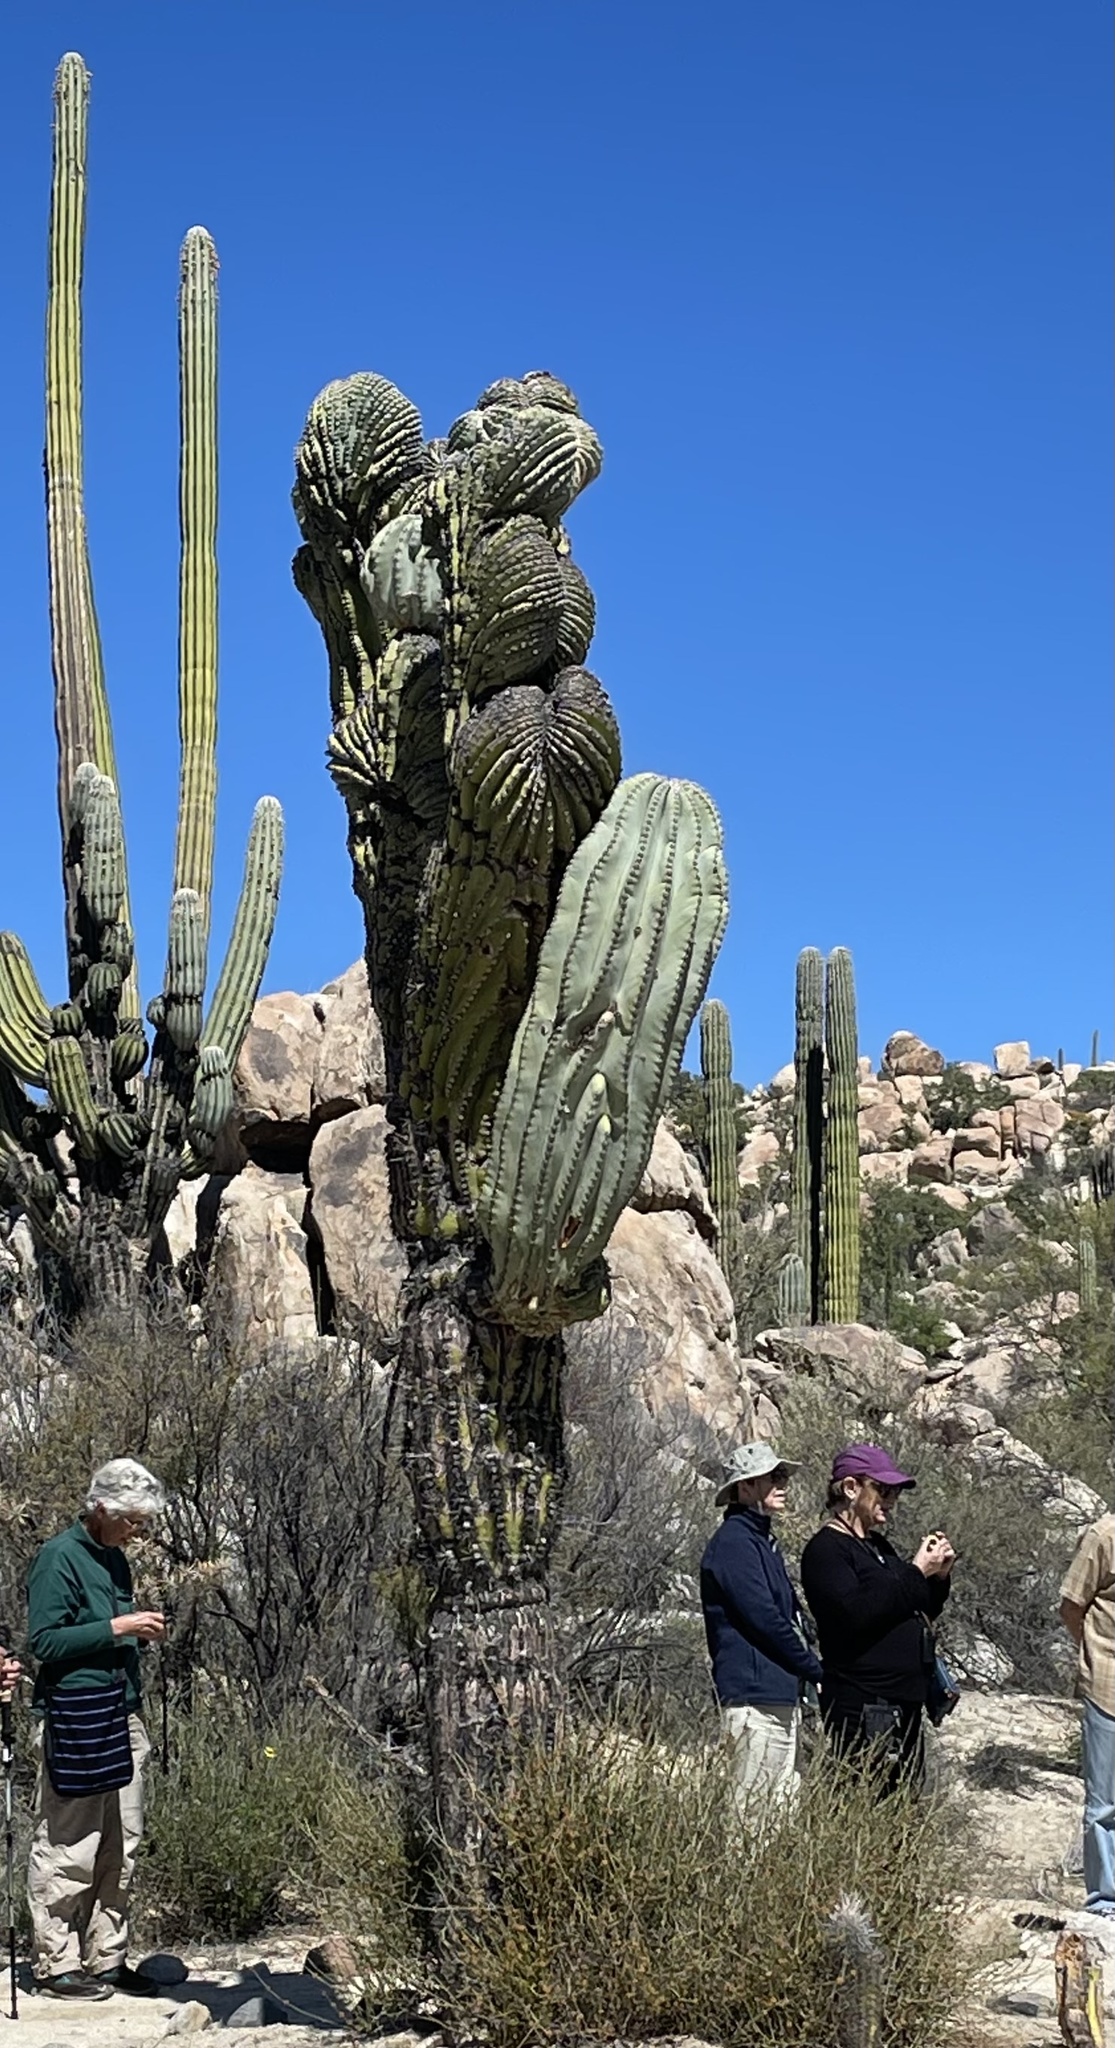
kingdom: Plantae
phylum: Tracheophyta
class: Magnoliopsida
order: Caryophyllales
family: Cactaceae
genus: Pachycereus
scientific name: Pachycereus pringlei
